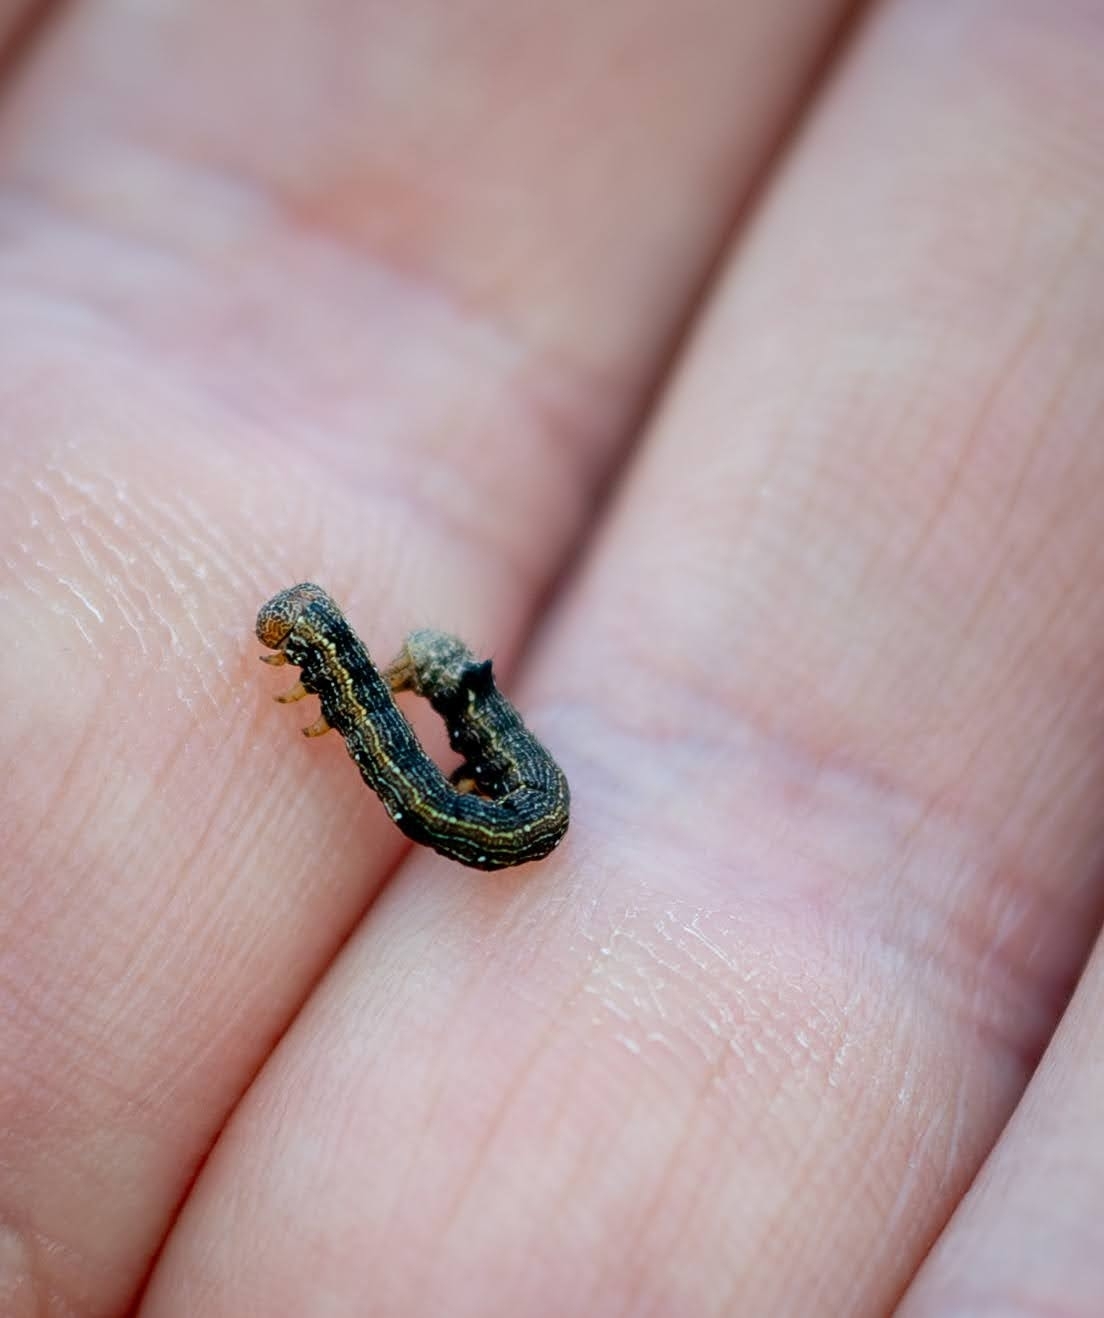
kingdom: Animalia
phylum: Arthropoda
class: Insecta
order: Lepidoptera
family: Geometridae
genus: Colotois
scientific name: Colotois pennaria
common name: Feathered thorn
